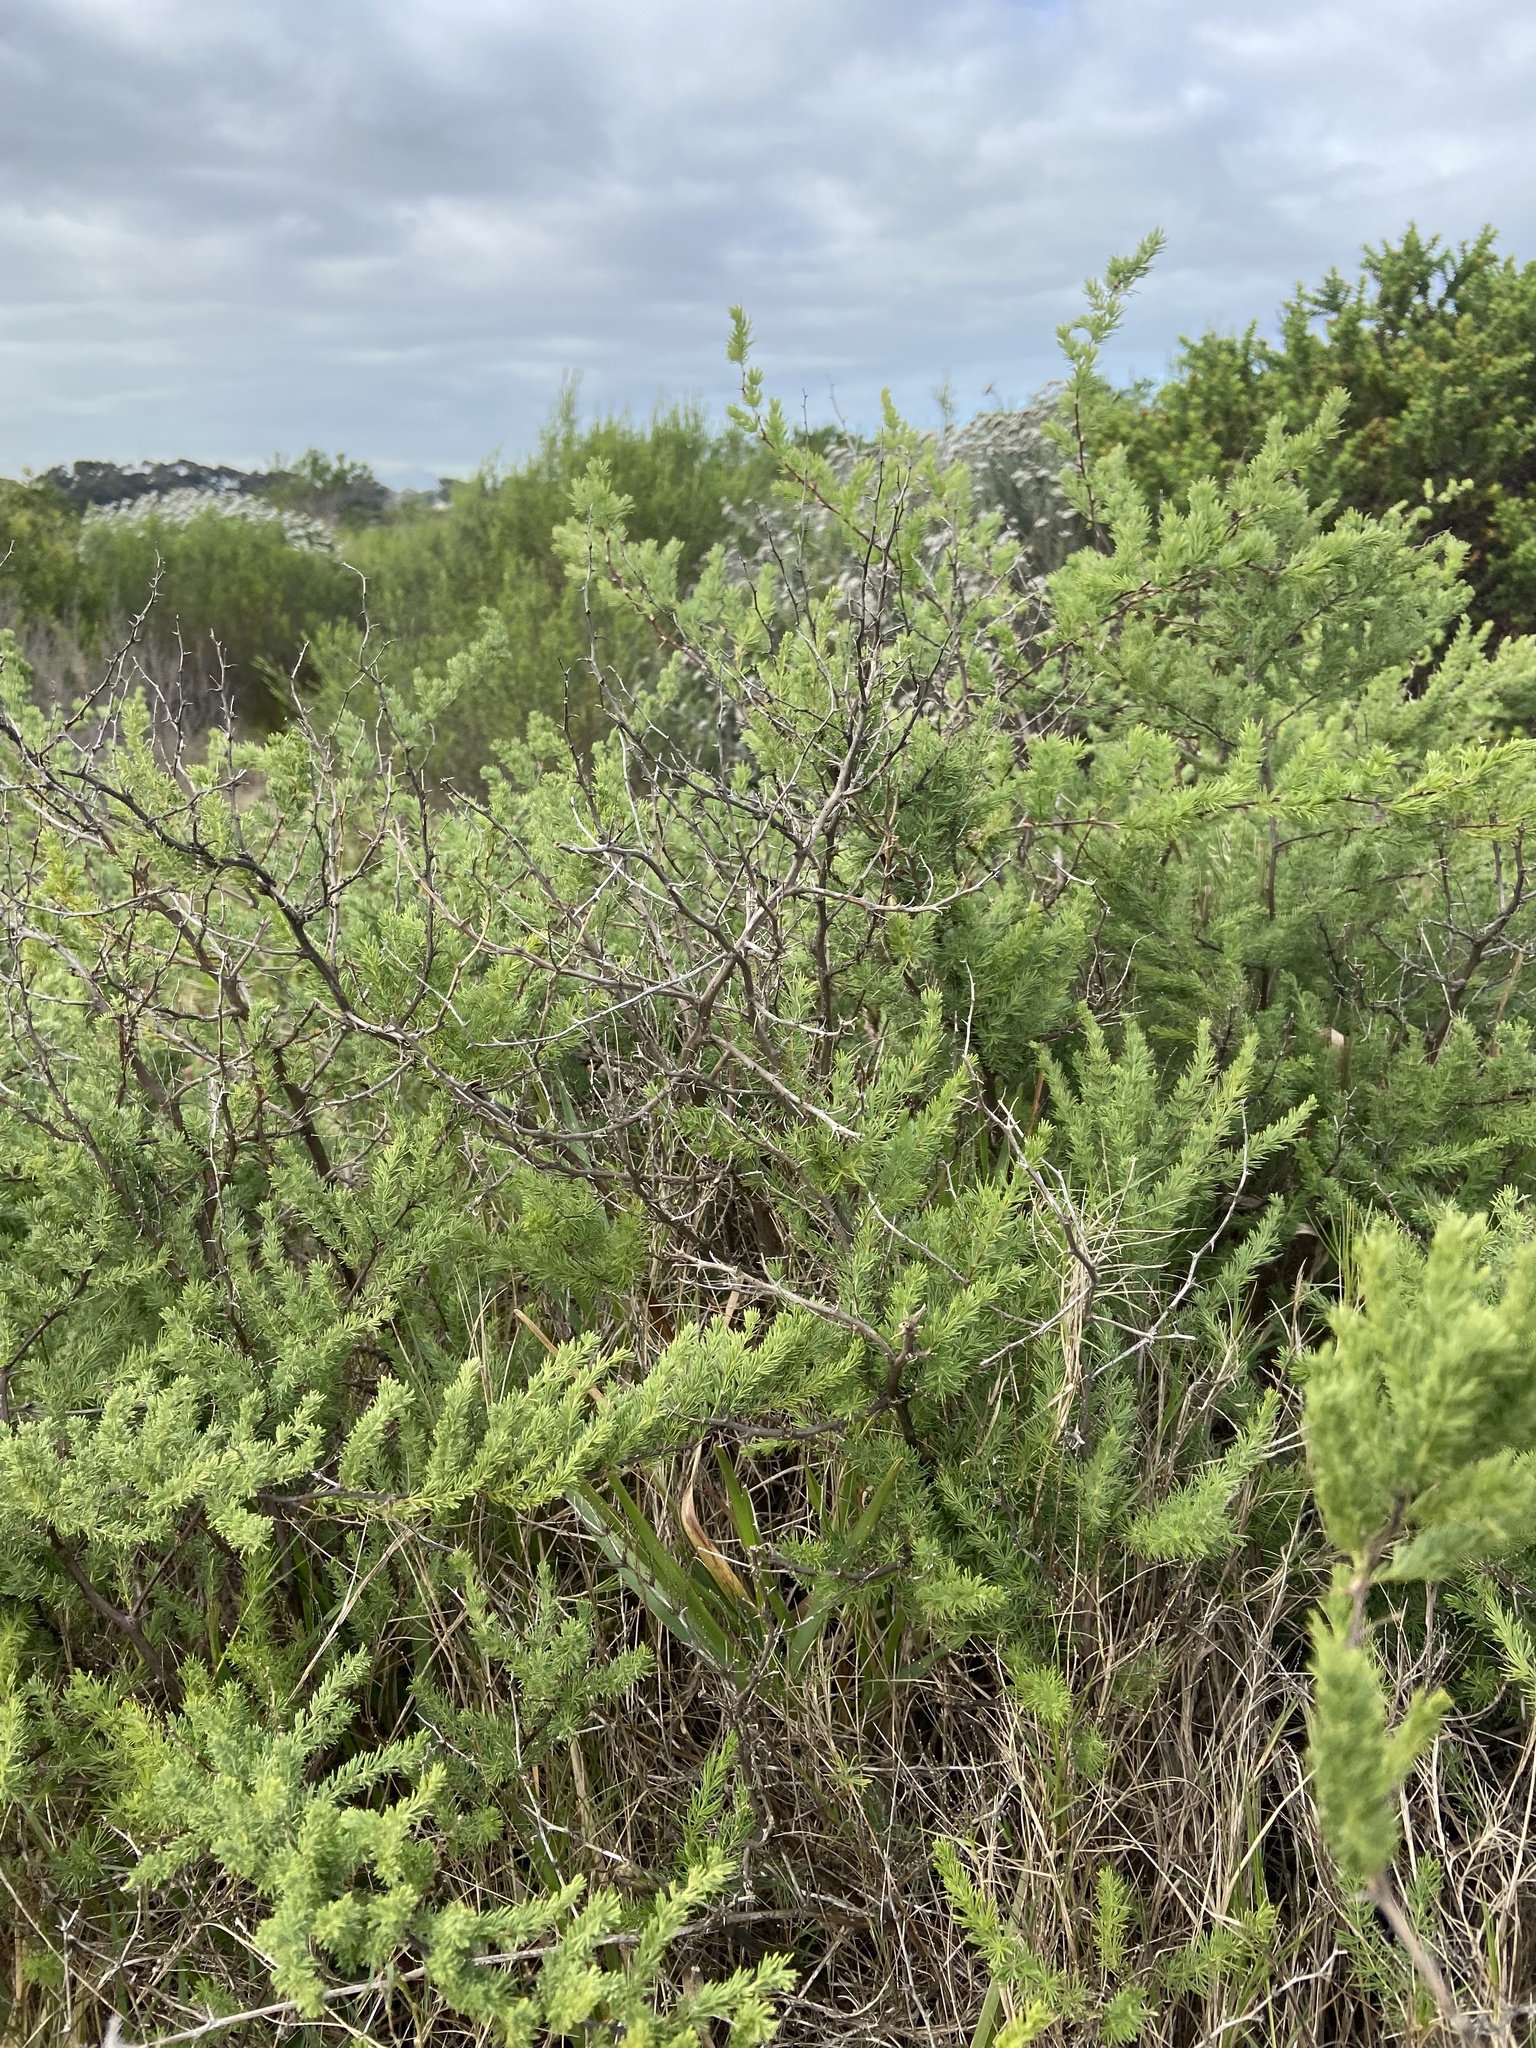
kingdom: Plantae
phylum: Tracheophyta
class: Liliopsida
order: Asparagales
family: Asparagaceae
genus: Asparagus
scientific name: Asparagus rubicundus
